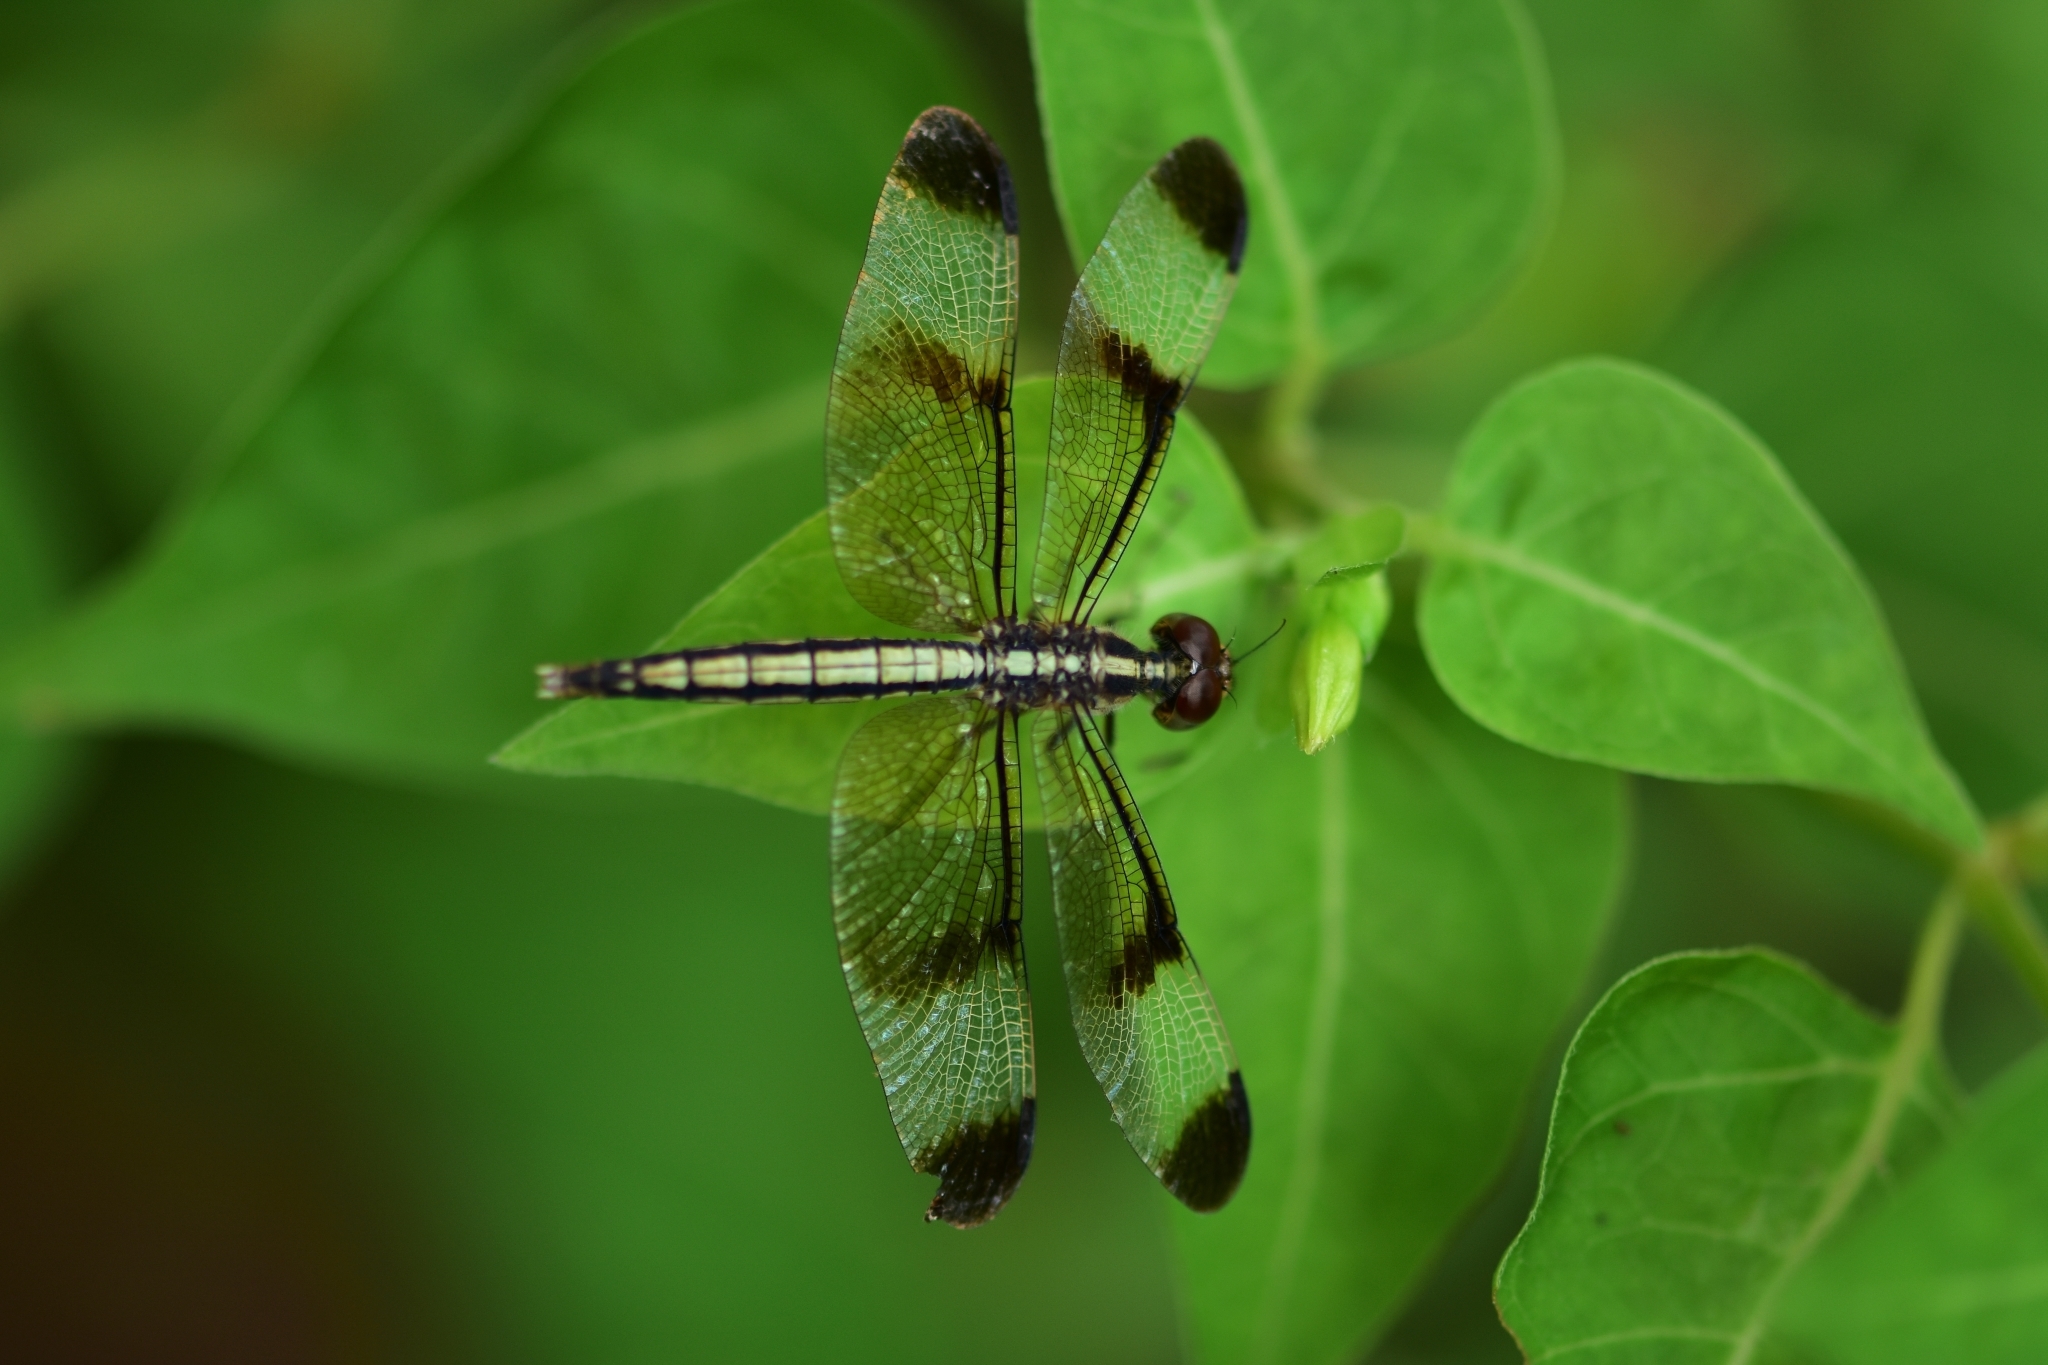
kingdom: Animalia
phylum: Arthropoda
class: Insecta
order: Odonata
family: Libellulidae
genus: Neurothemis
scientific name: Neurothemis tullia
